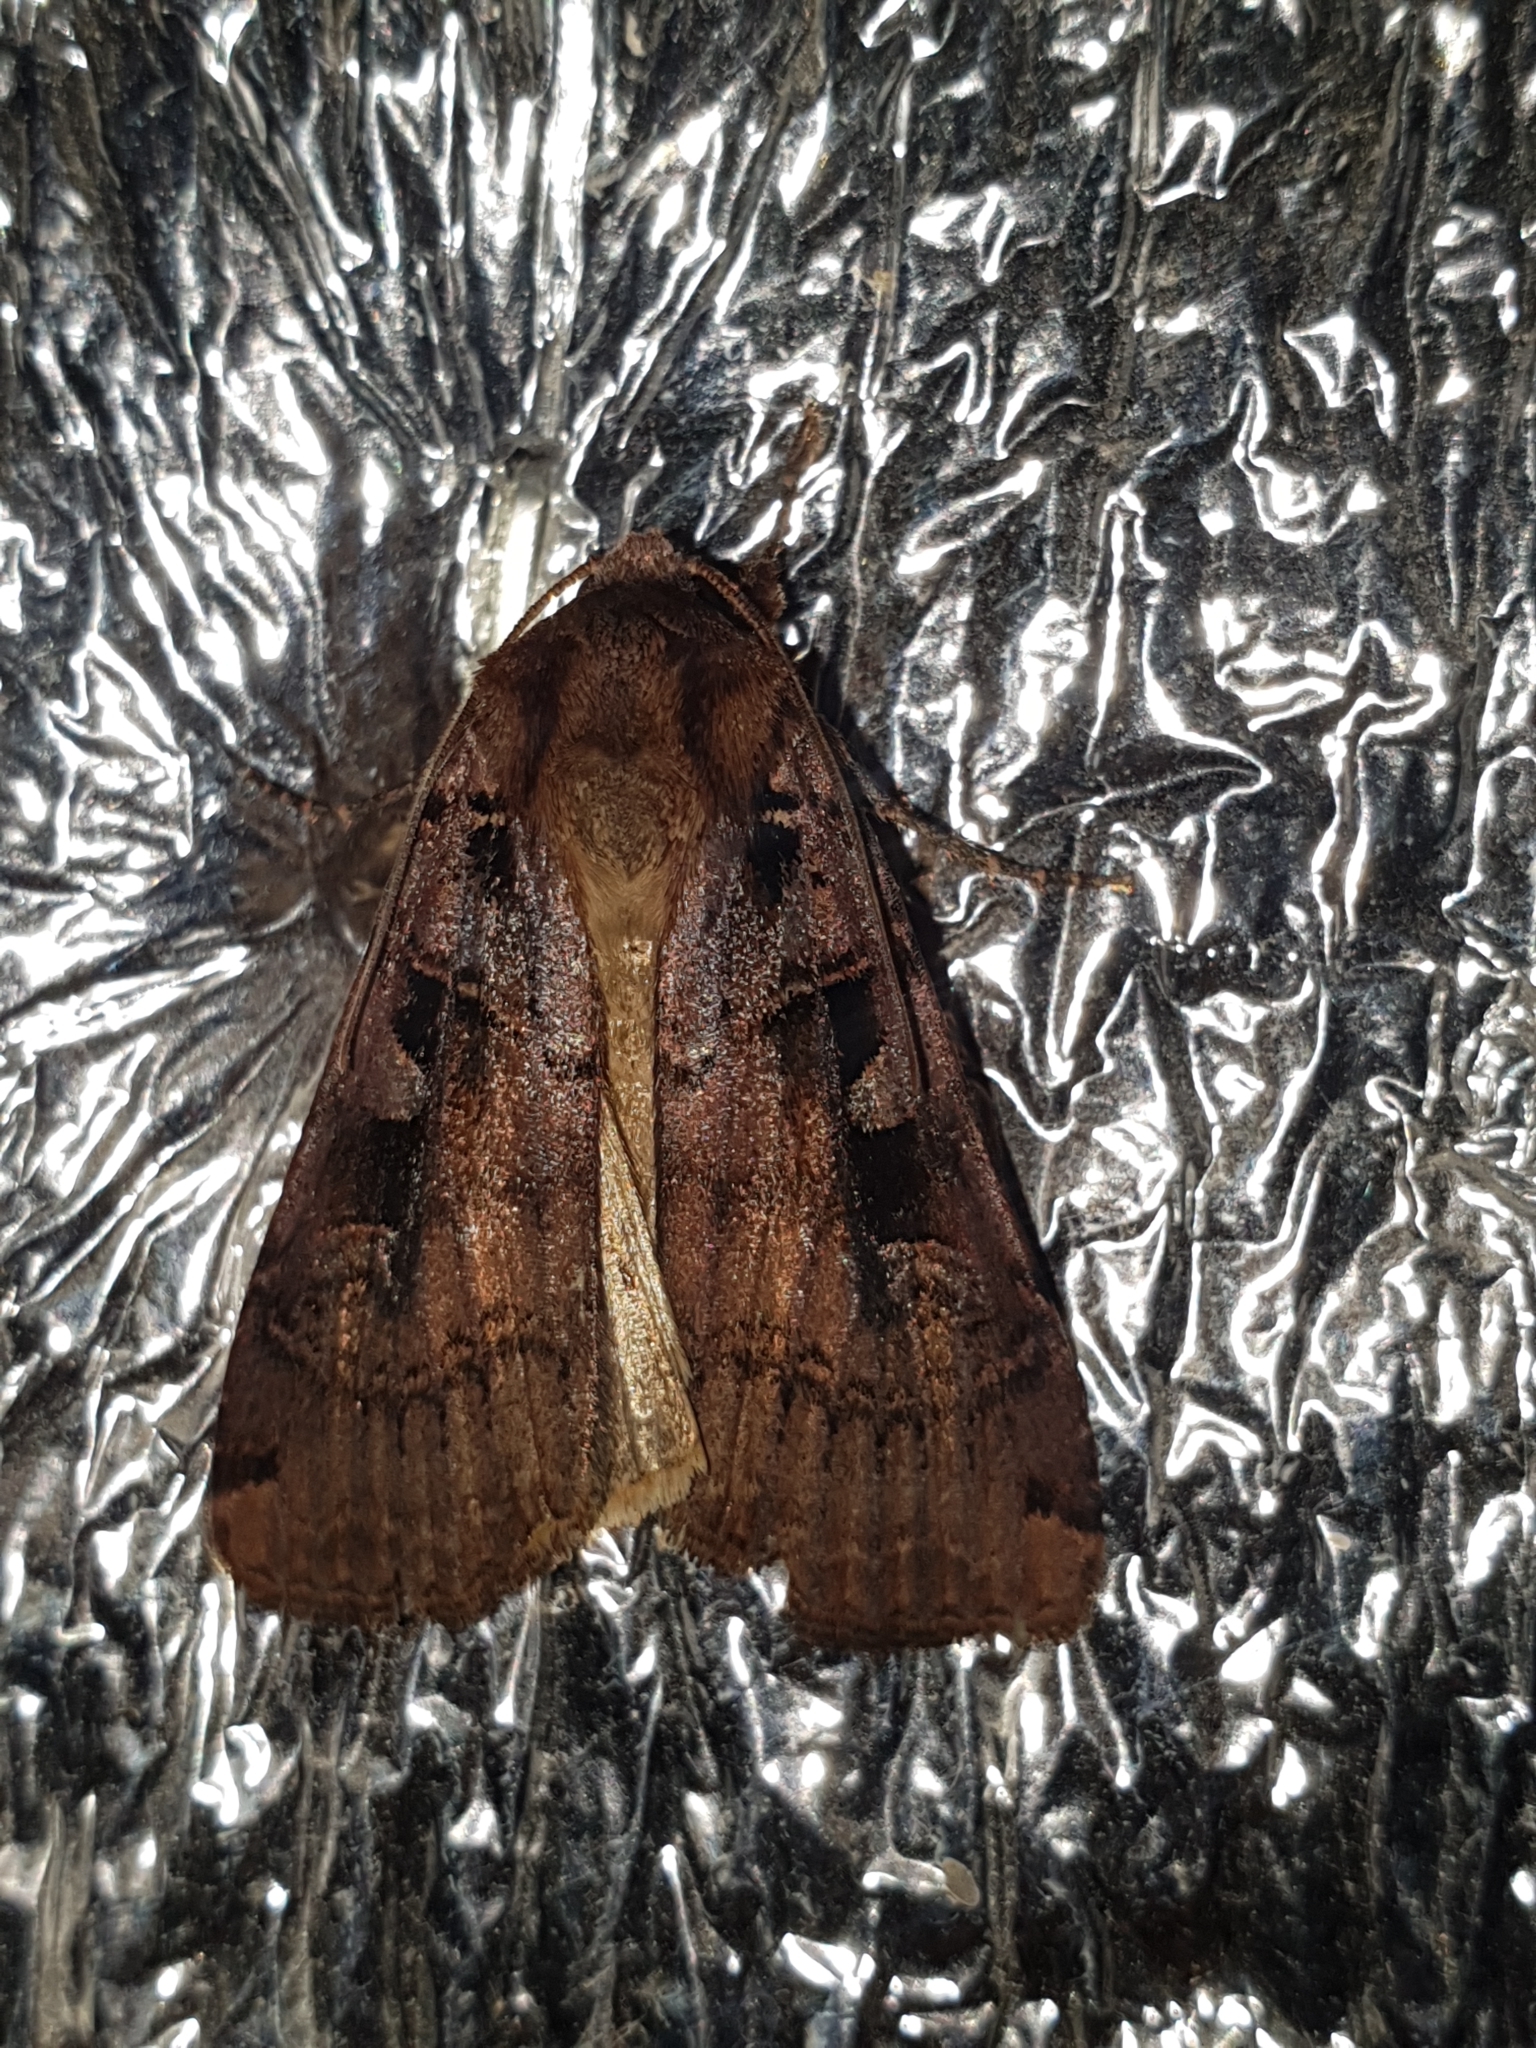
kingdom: Animalia
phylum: Arthropoda
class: Insecta
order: Lepidoptera
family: Noctuidae
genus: Xestia
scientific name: Xestia ditrapezium
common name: Triple-spotted clay
